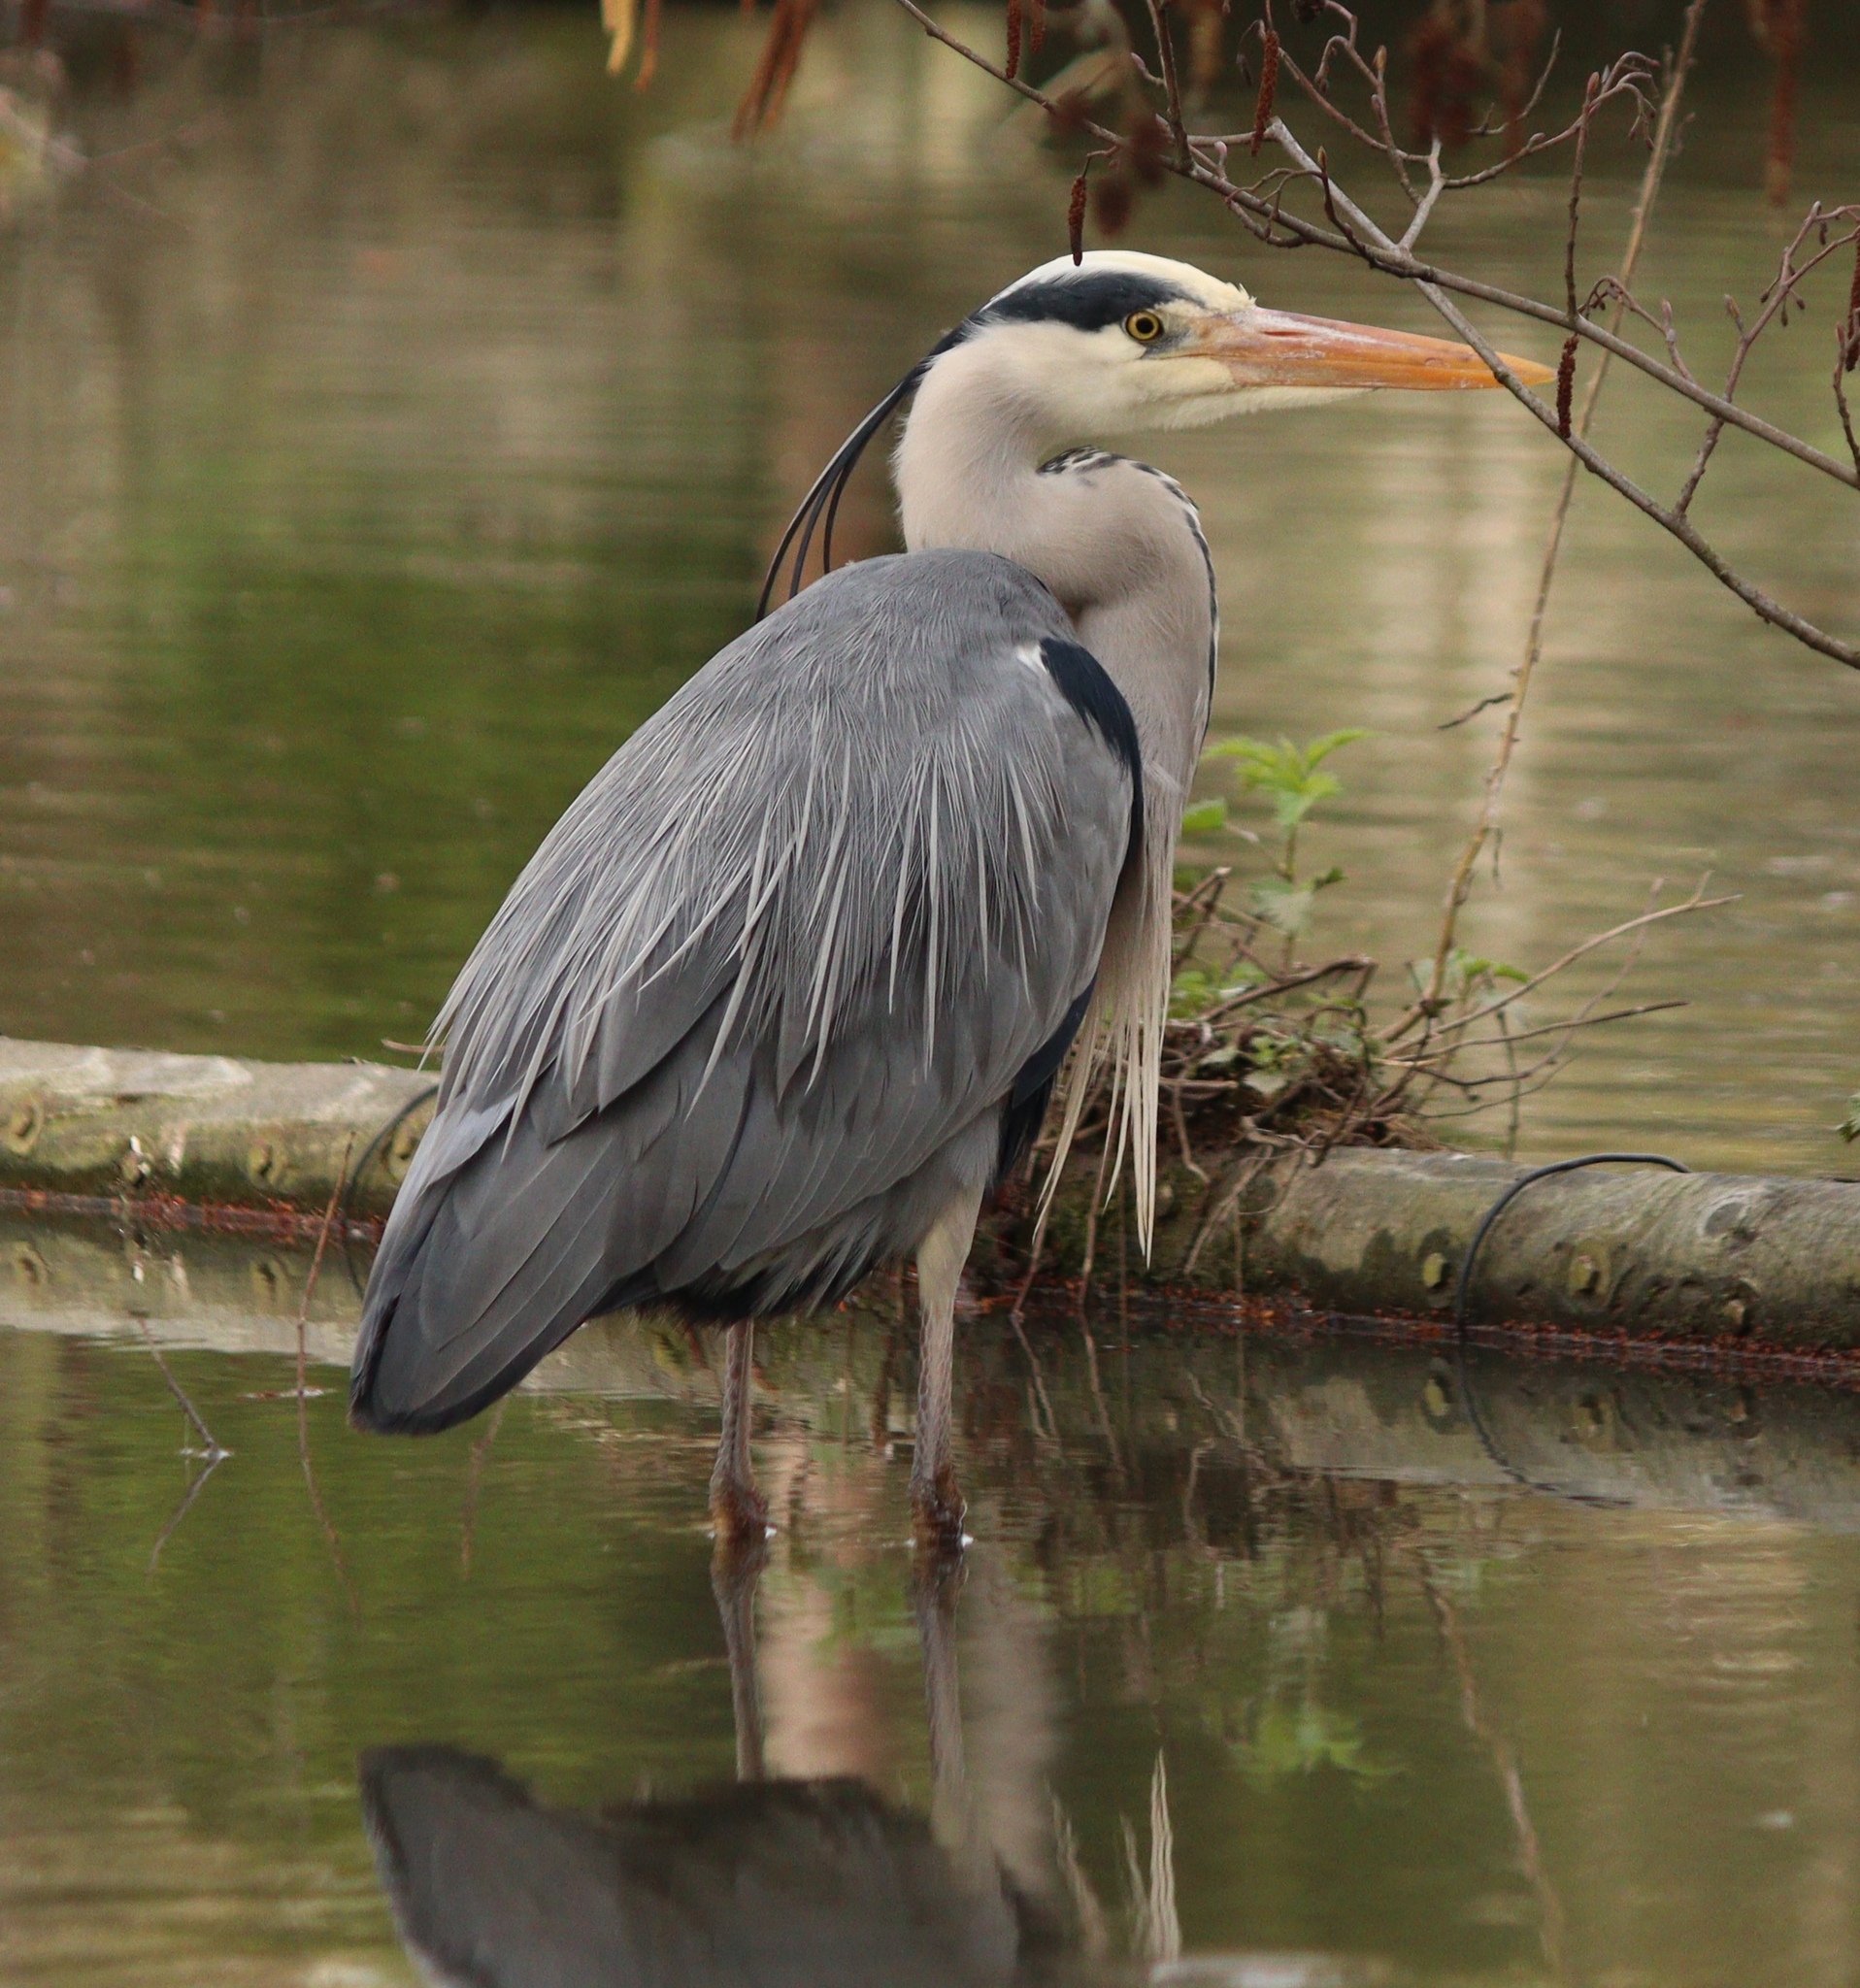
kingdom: Animalia
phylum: Chordata
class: Aves
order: Pelecaniformes
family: Ardeidae
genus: Ardea
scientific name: Ardea cinerea
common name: Grey heron
